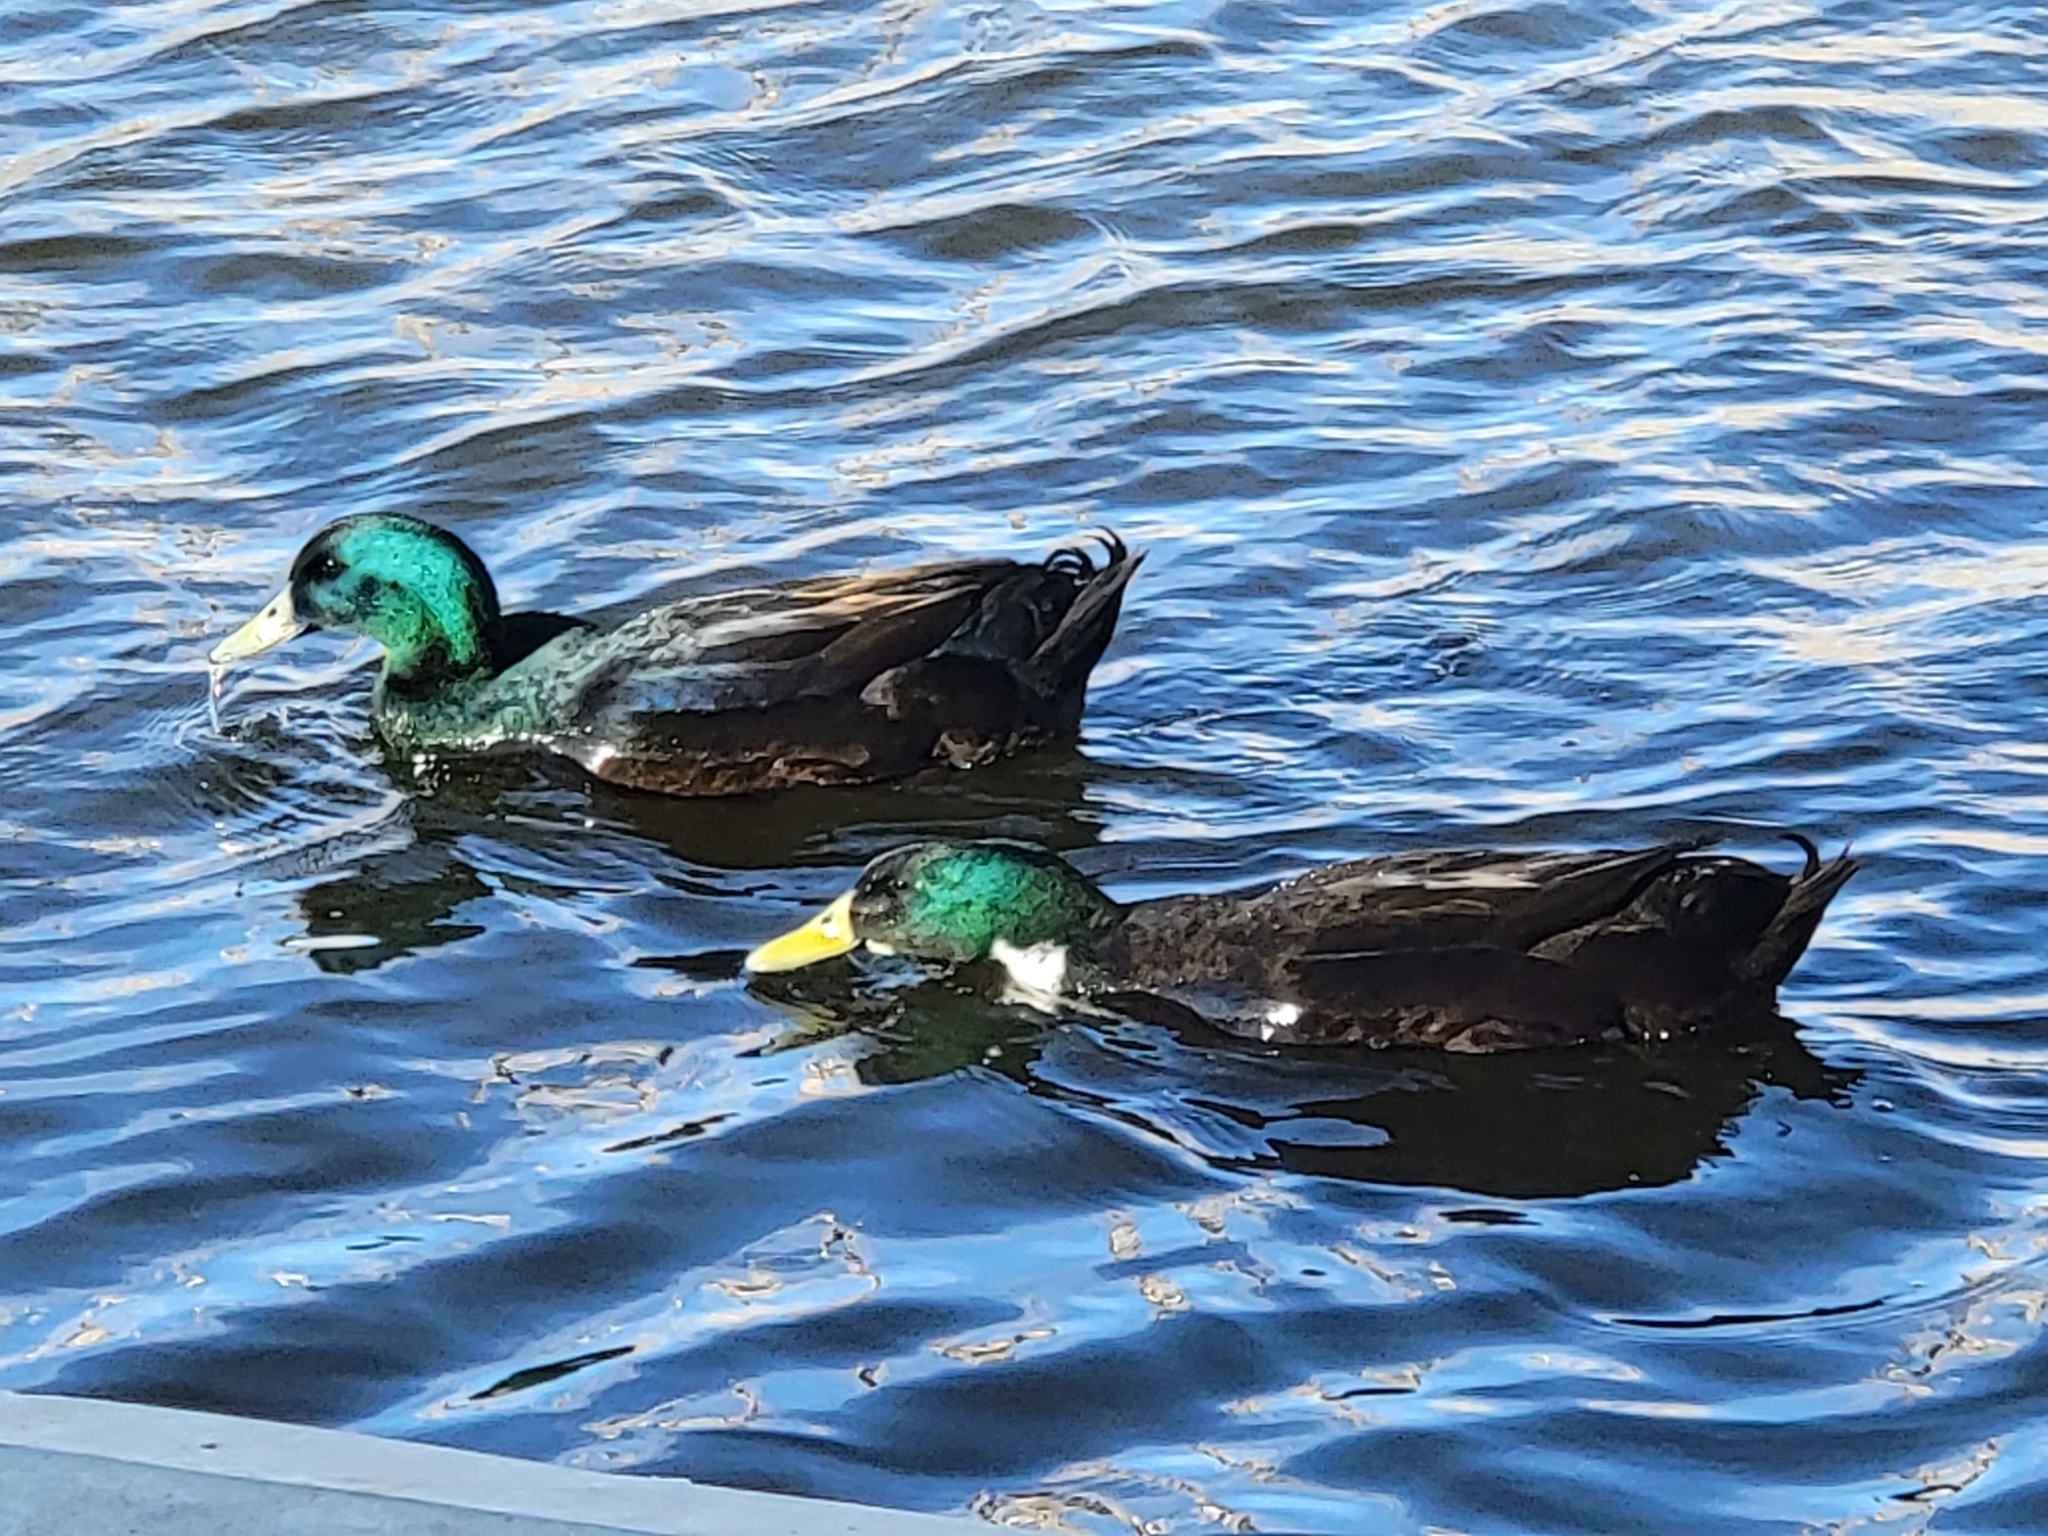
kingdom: Animalia
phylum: Chordata
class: Aves
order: Anseriformes
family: Anatidae
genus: Anas
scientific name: Anas platyrhynchos
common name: Mallard
